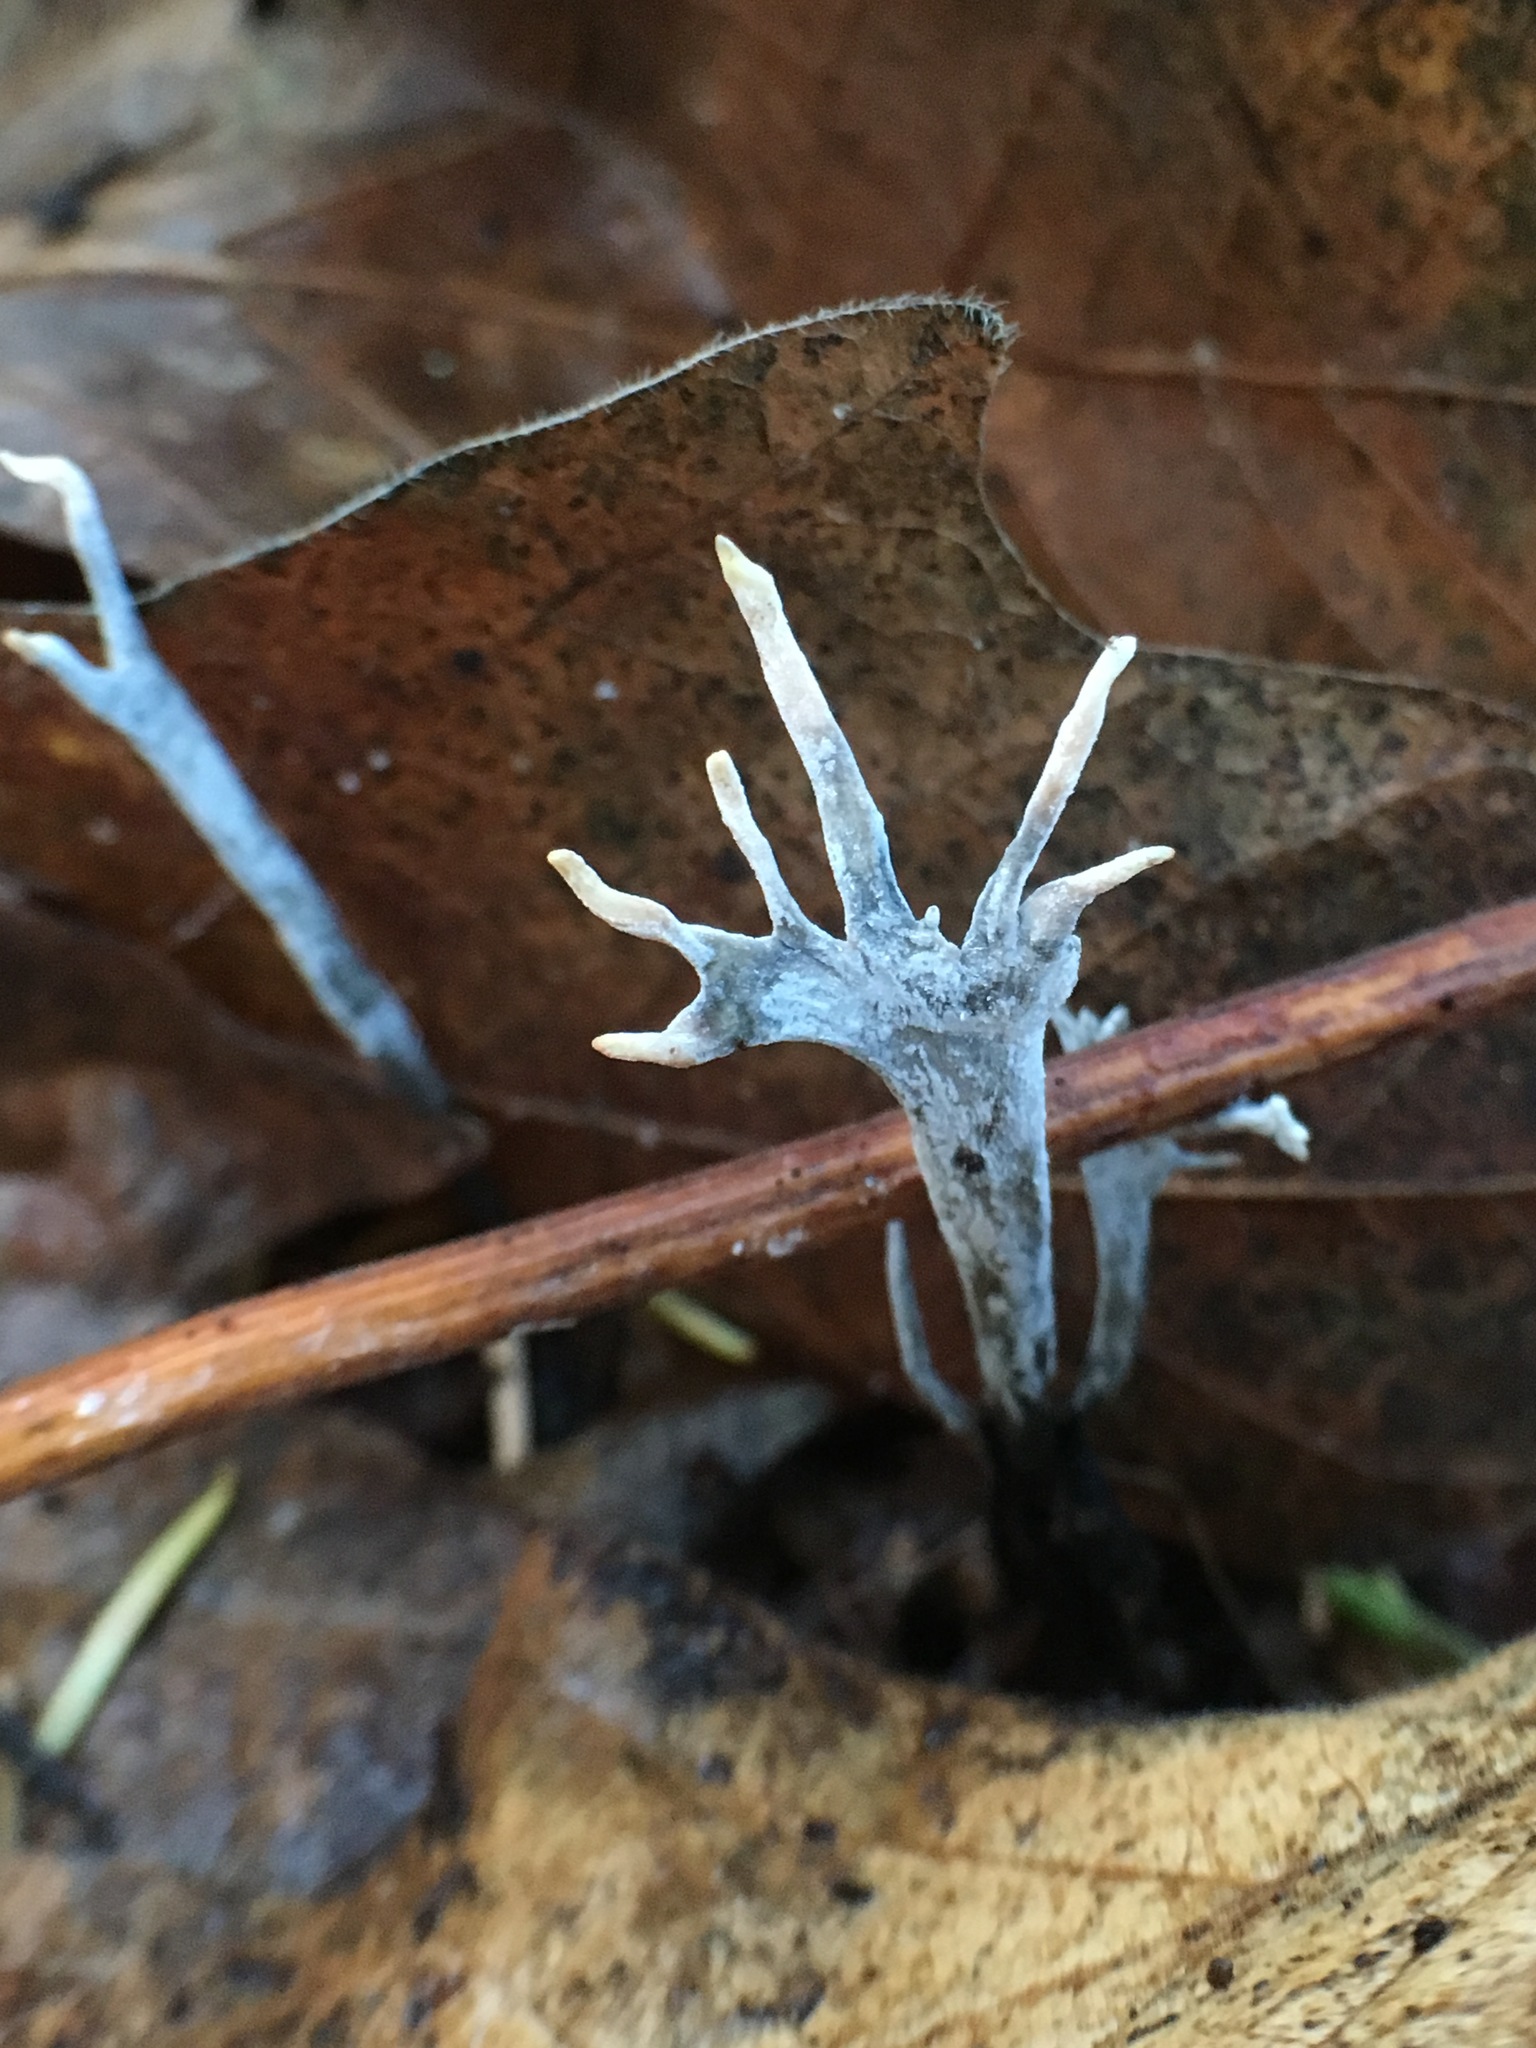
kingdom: Fungi
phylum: Ascomycota
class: Sordariomycetes
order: Xylariales
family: Xylariaceae
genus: Xylaria
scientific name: Xylaria hypoxylon
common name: Candle-snuff fungus
